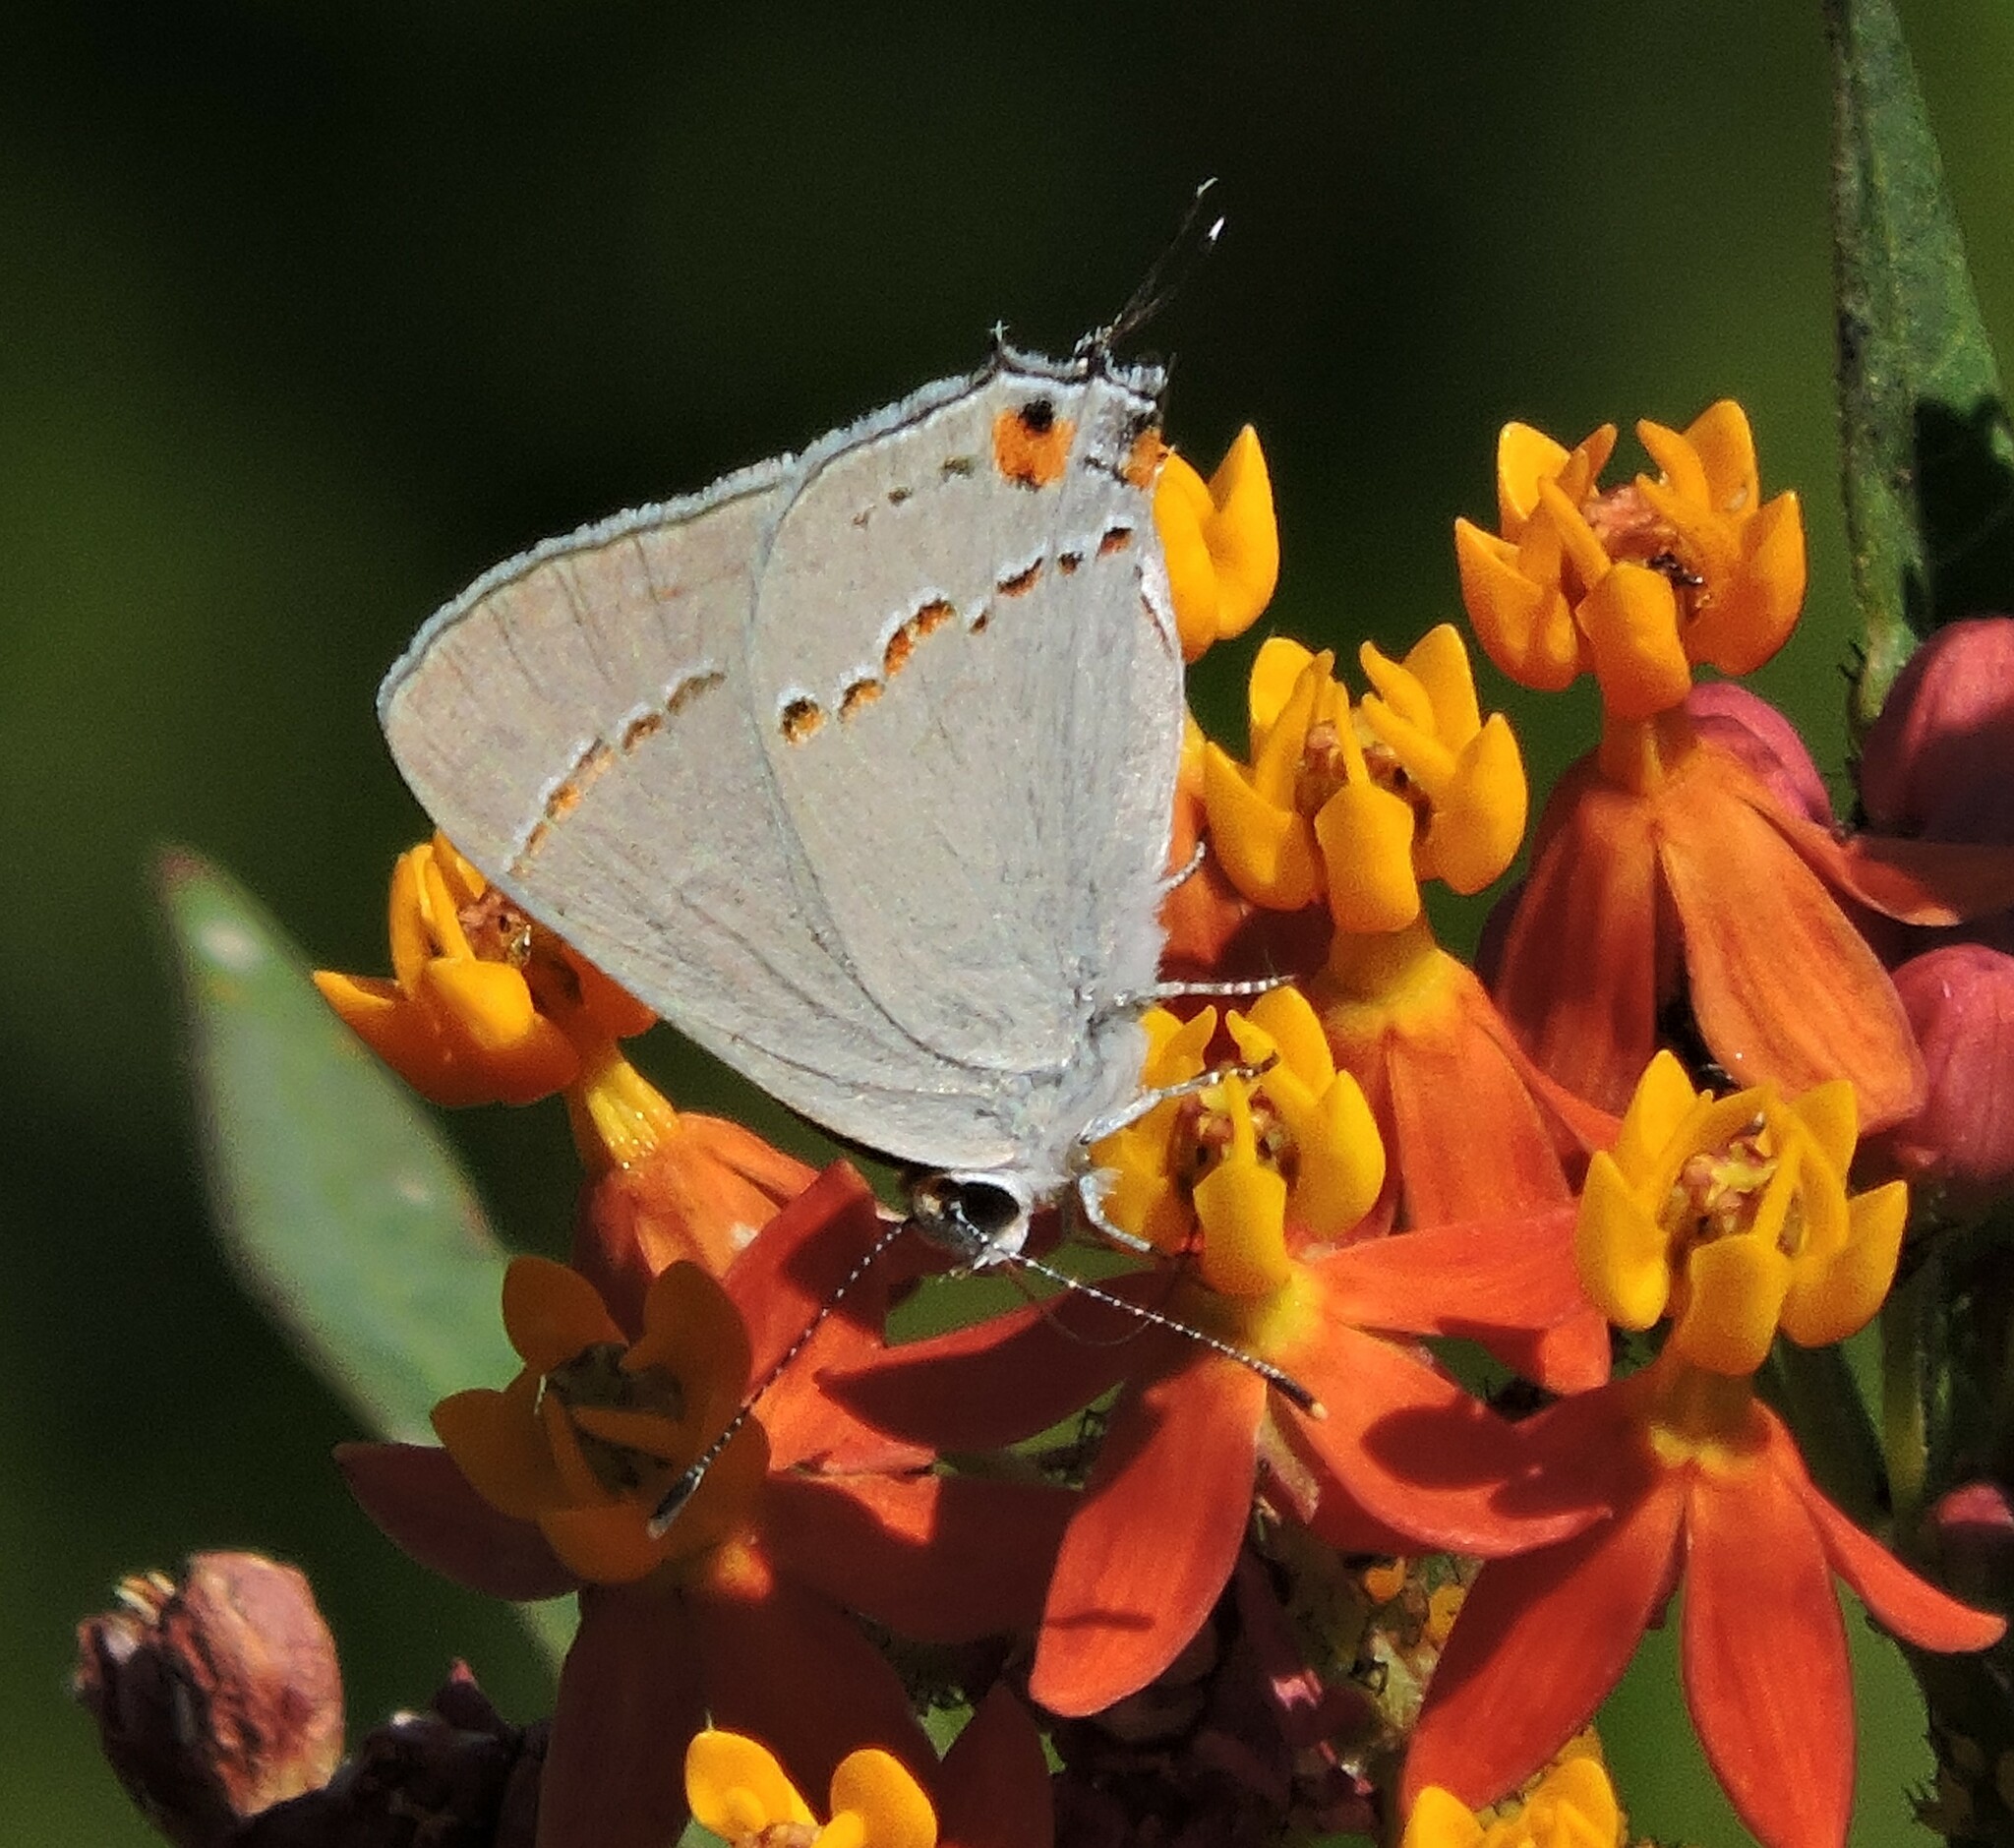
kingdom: Animalia
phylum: Arthropoda
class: Insecta
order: Lepidoptera
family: Lycaenidae
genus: Strymon
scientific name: Strymon melinus
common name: Gray hairstreak
